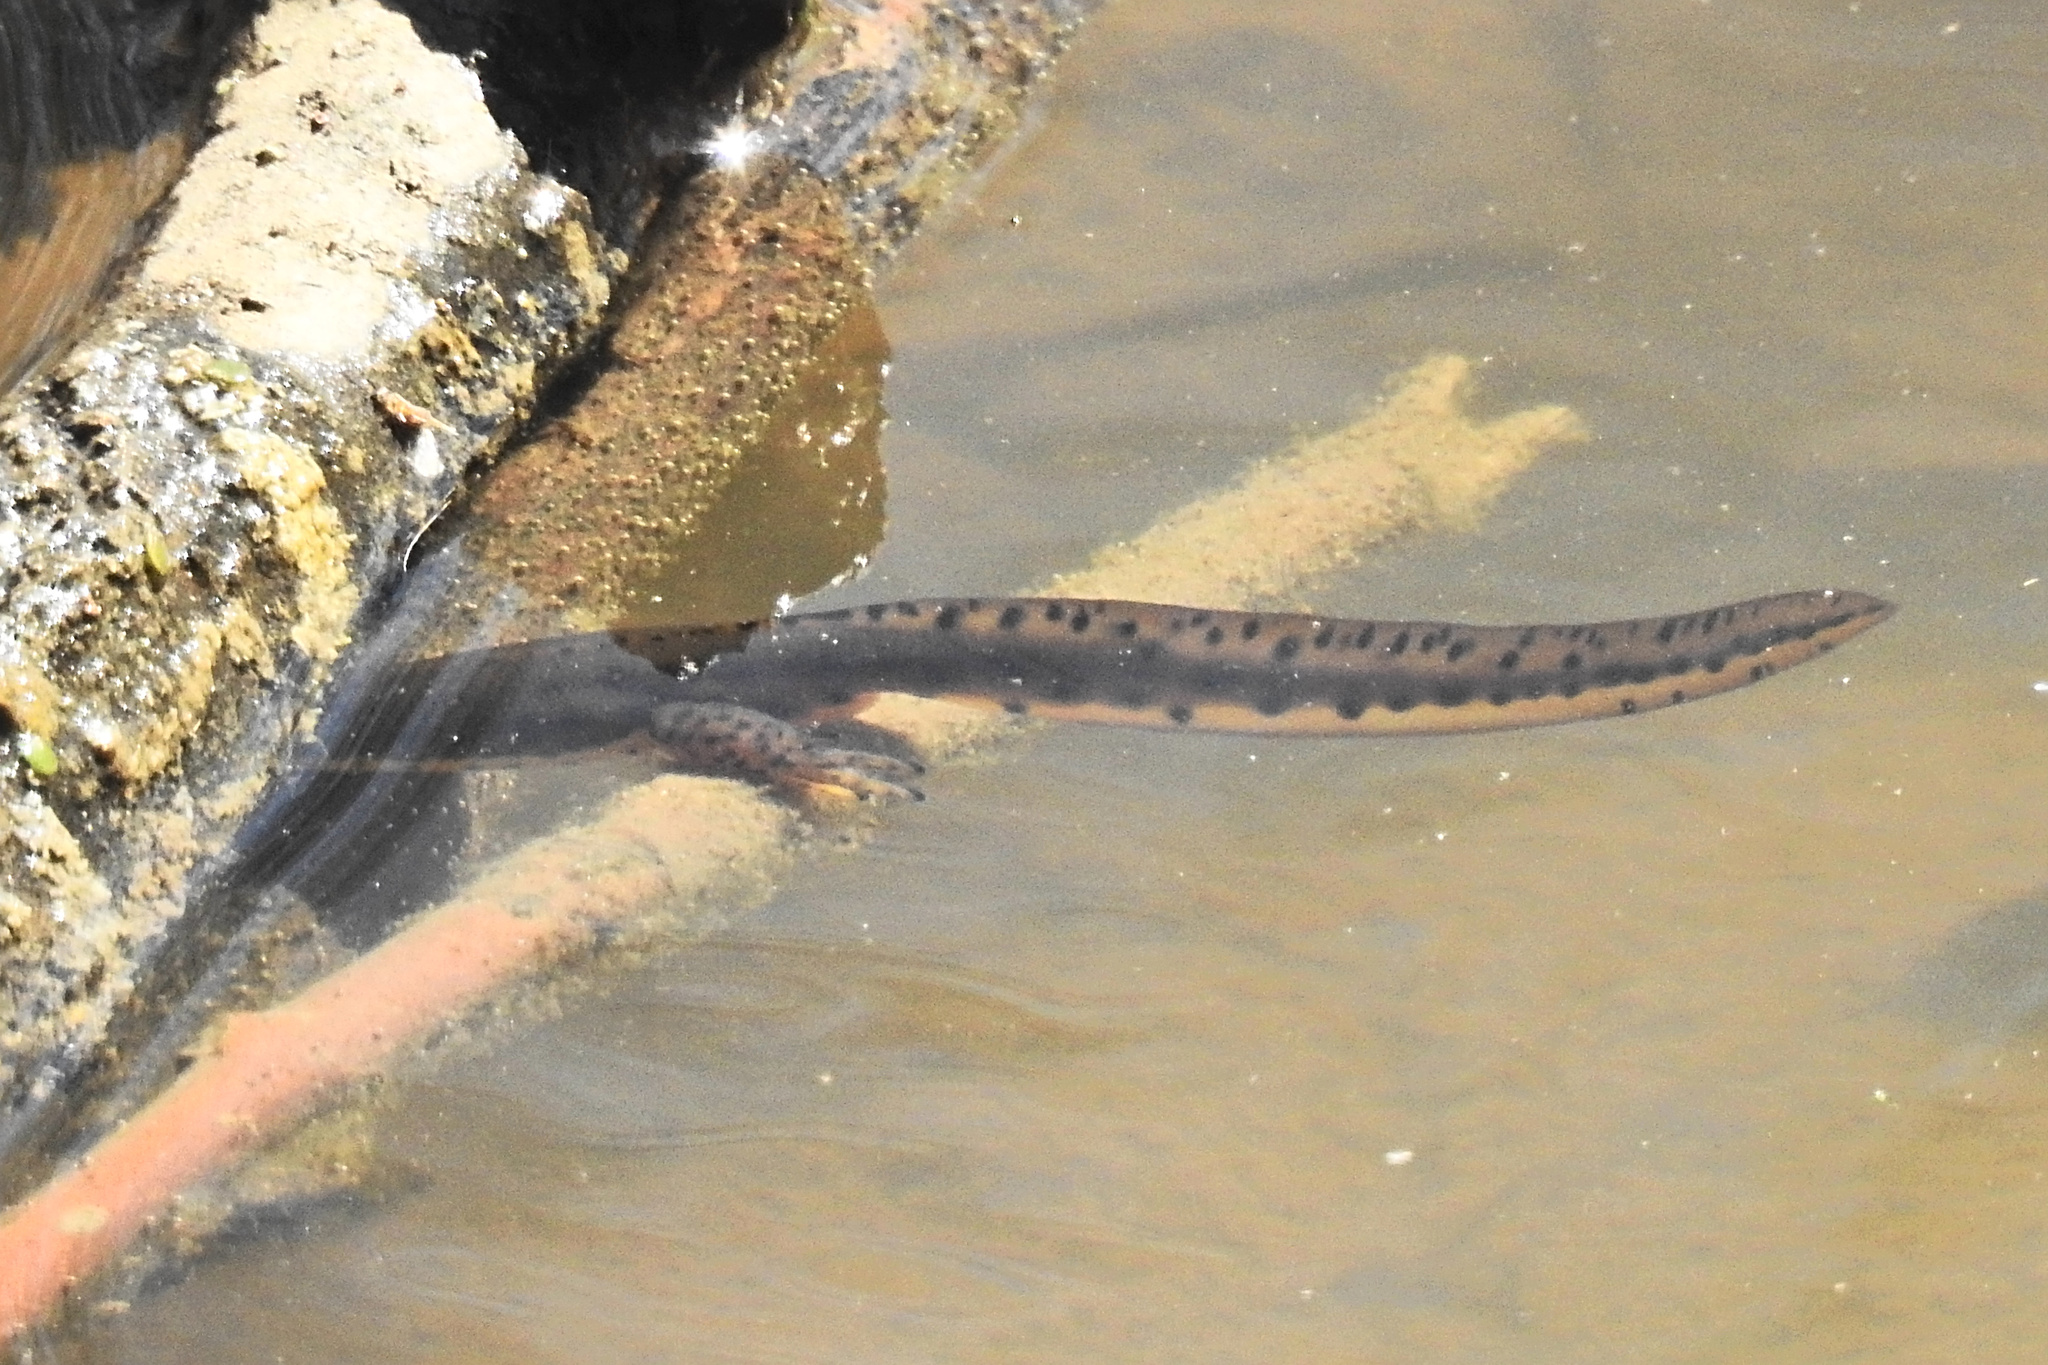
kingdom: Animalia
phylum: Chordata
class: Amphibia
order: Caudata
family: Salamandridae
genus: Notophthalmus
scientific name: Notophthalmus viridescens
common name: Eastern newt
